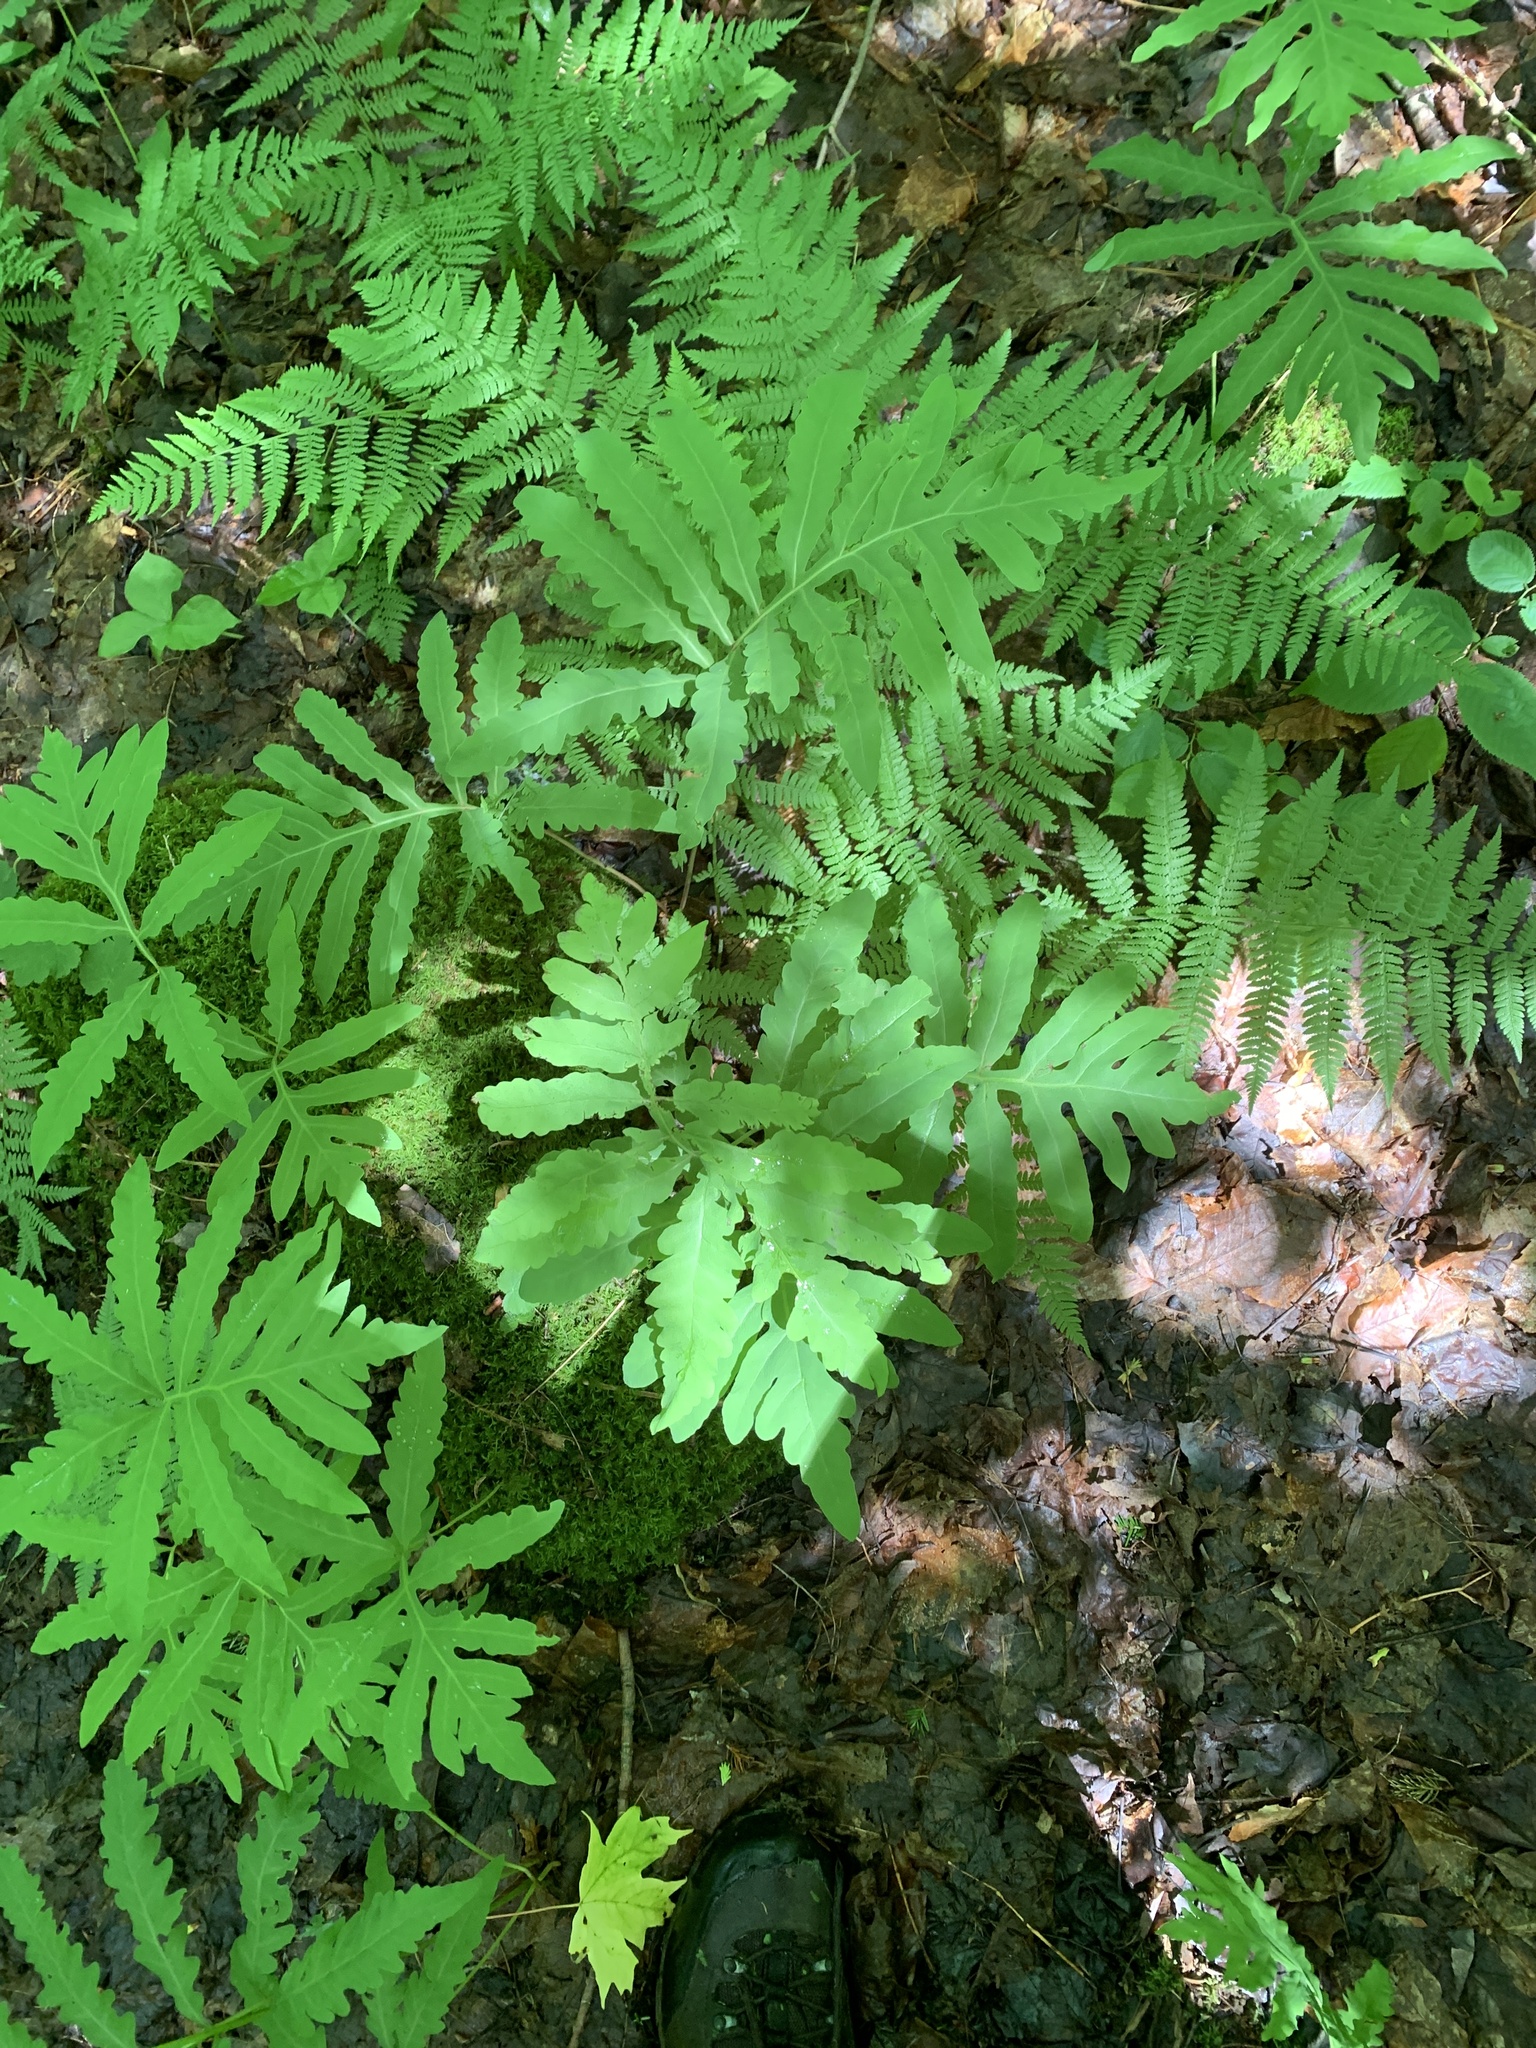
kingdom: Plantae
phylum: Tracheophyta
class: Polypodiopsida
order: Polypodiales
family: Onocleaceae
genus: Onoclea
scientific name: Onoclea sensibilis
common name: Sensitive fern
